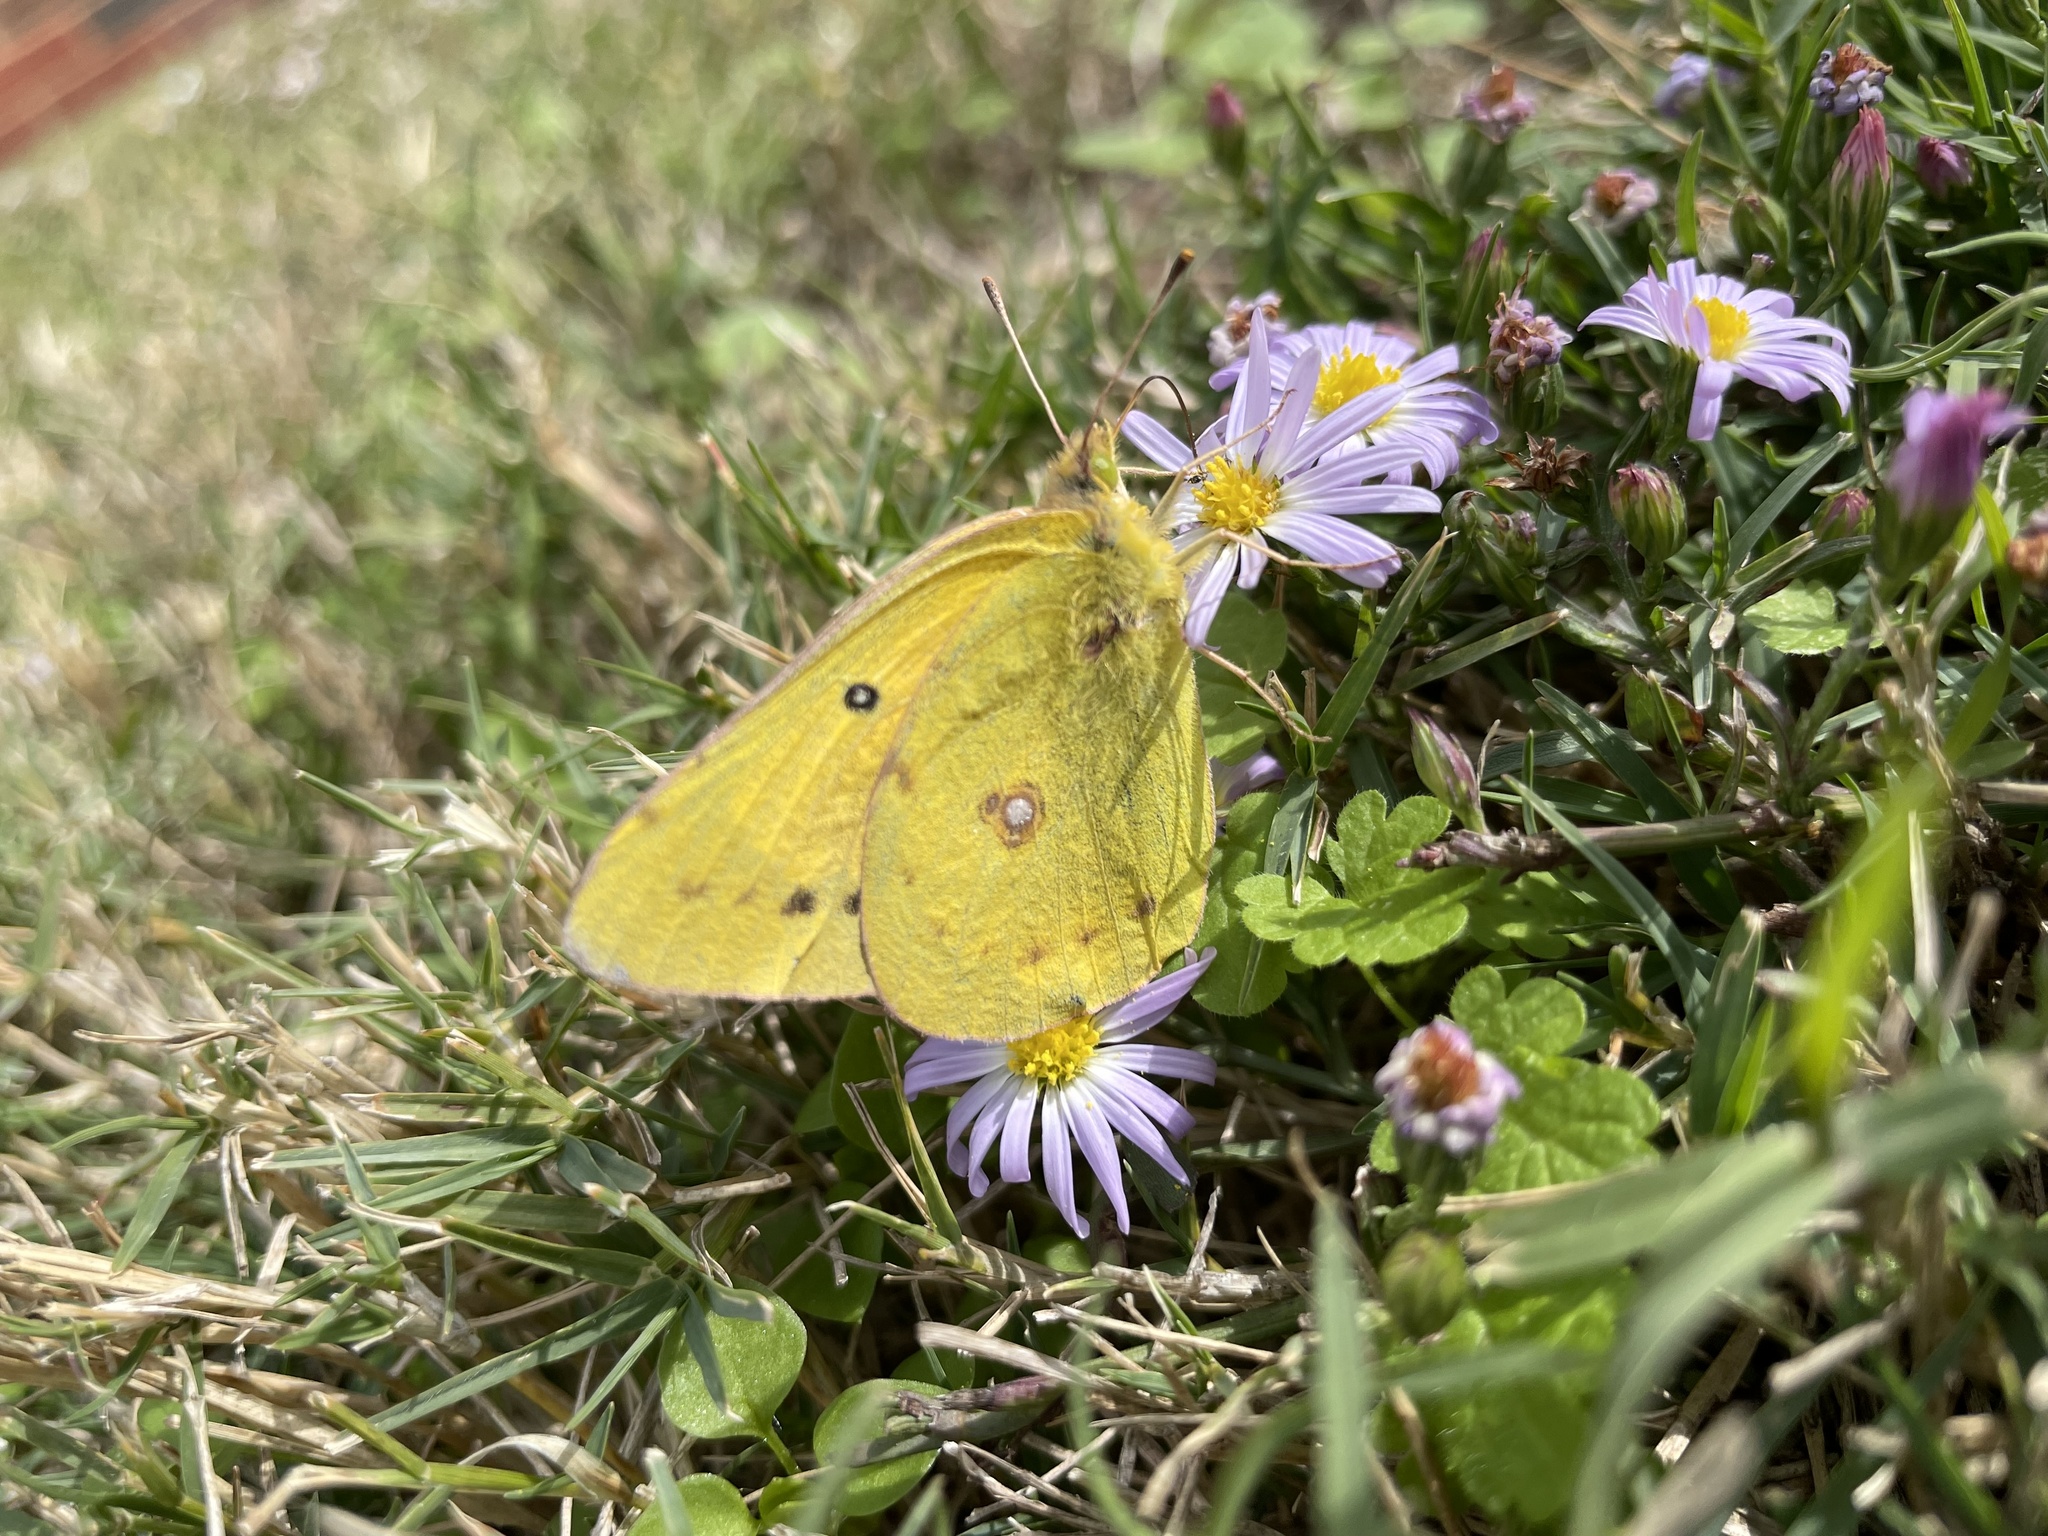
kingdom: Animalia
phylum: Arthropoda
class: Insecta
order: Lepidoptera
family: Pieridae
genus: Colias
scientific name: Colias eurytheme
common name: Alfalfa butterfly
